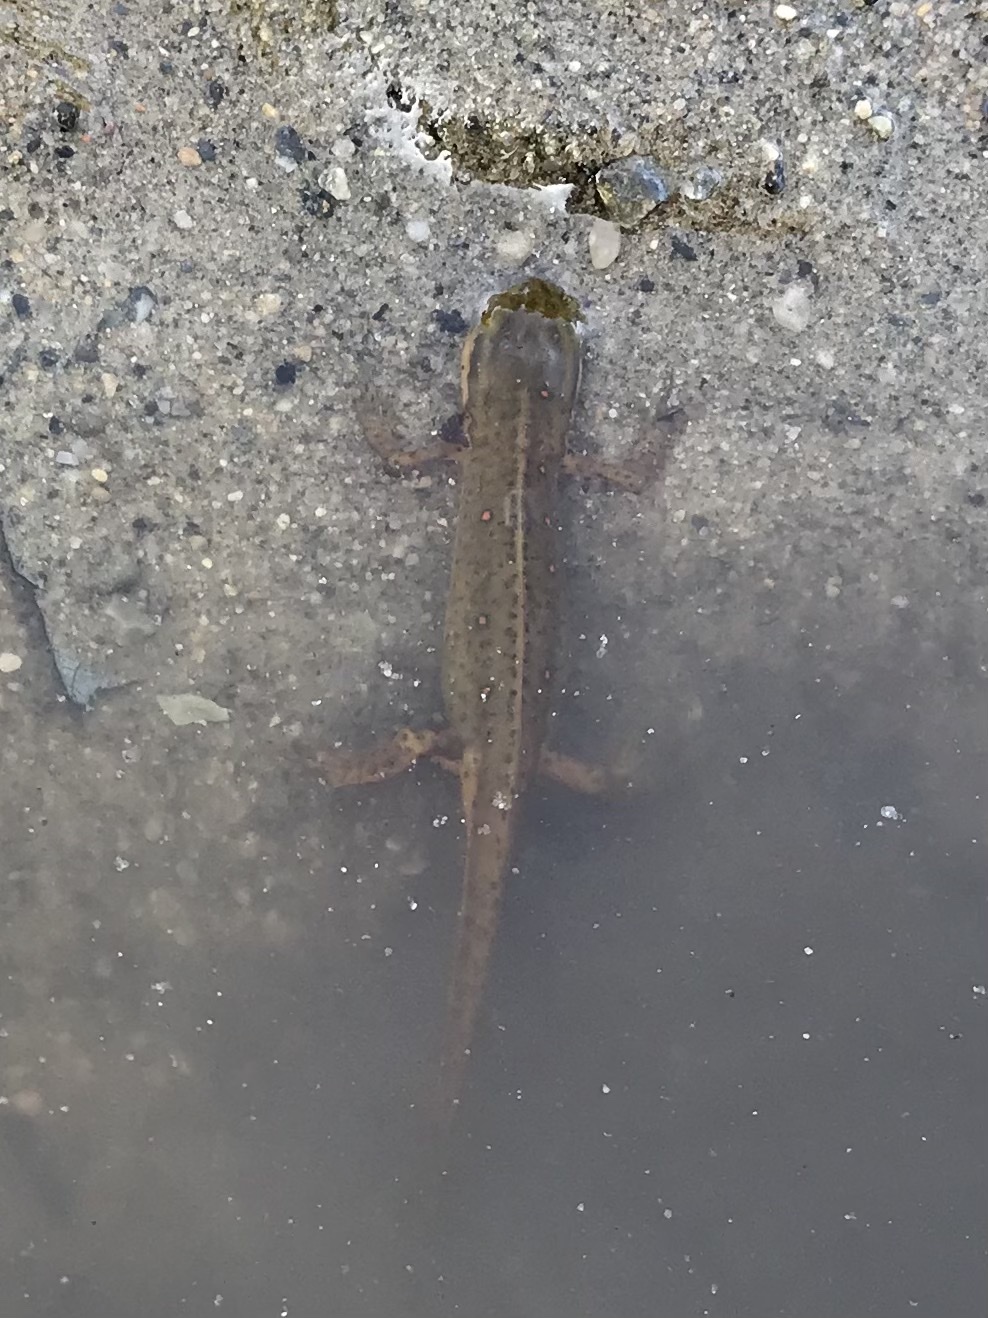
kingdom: Animalia
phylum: Chordata
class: Amphibia
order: Caudata
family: Salamandridae
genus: Notophthalmus
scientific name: Notophthalmus viridescens
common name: Eastern newt
